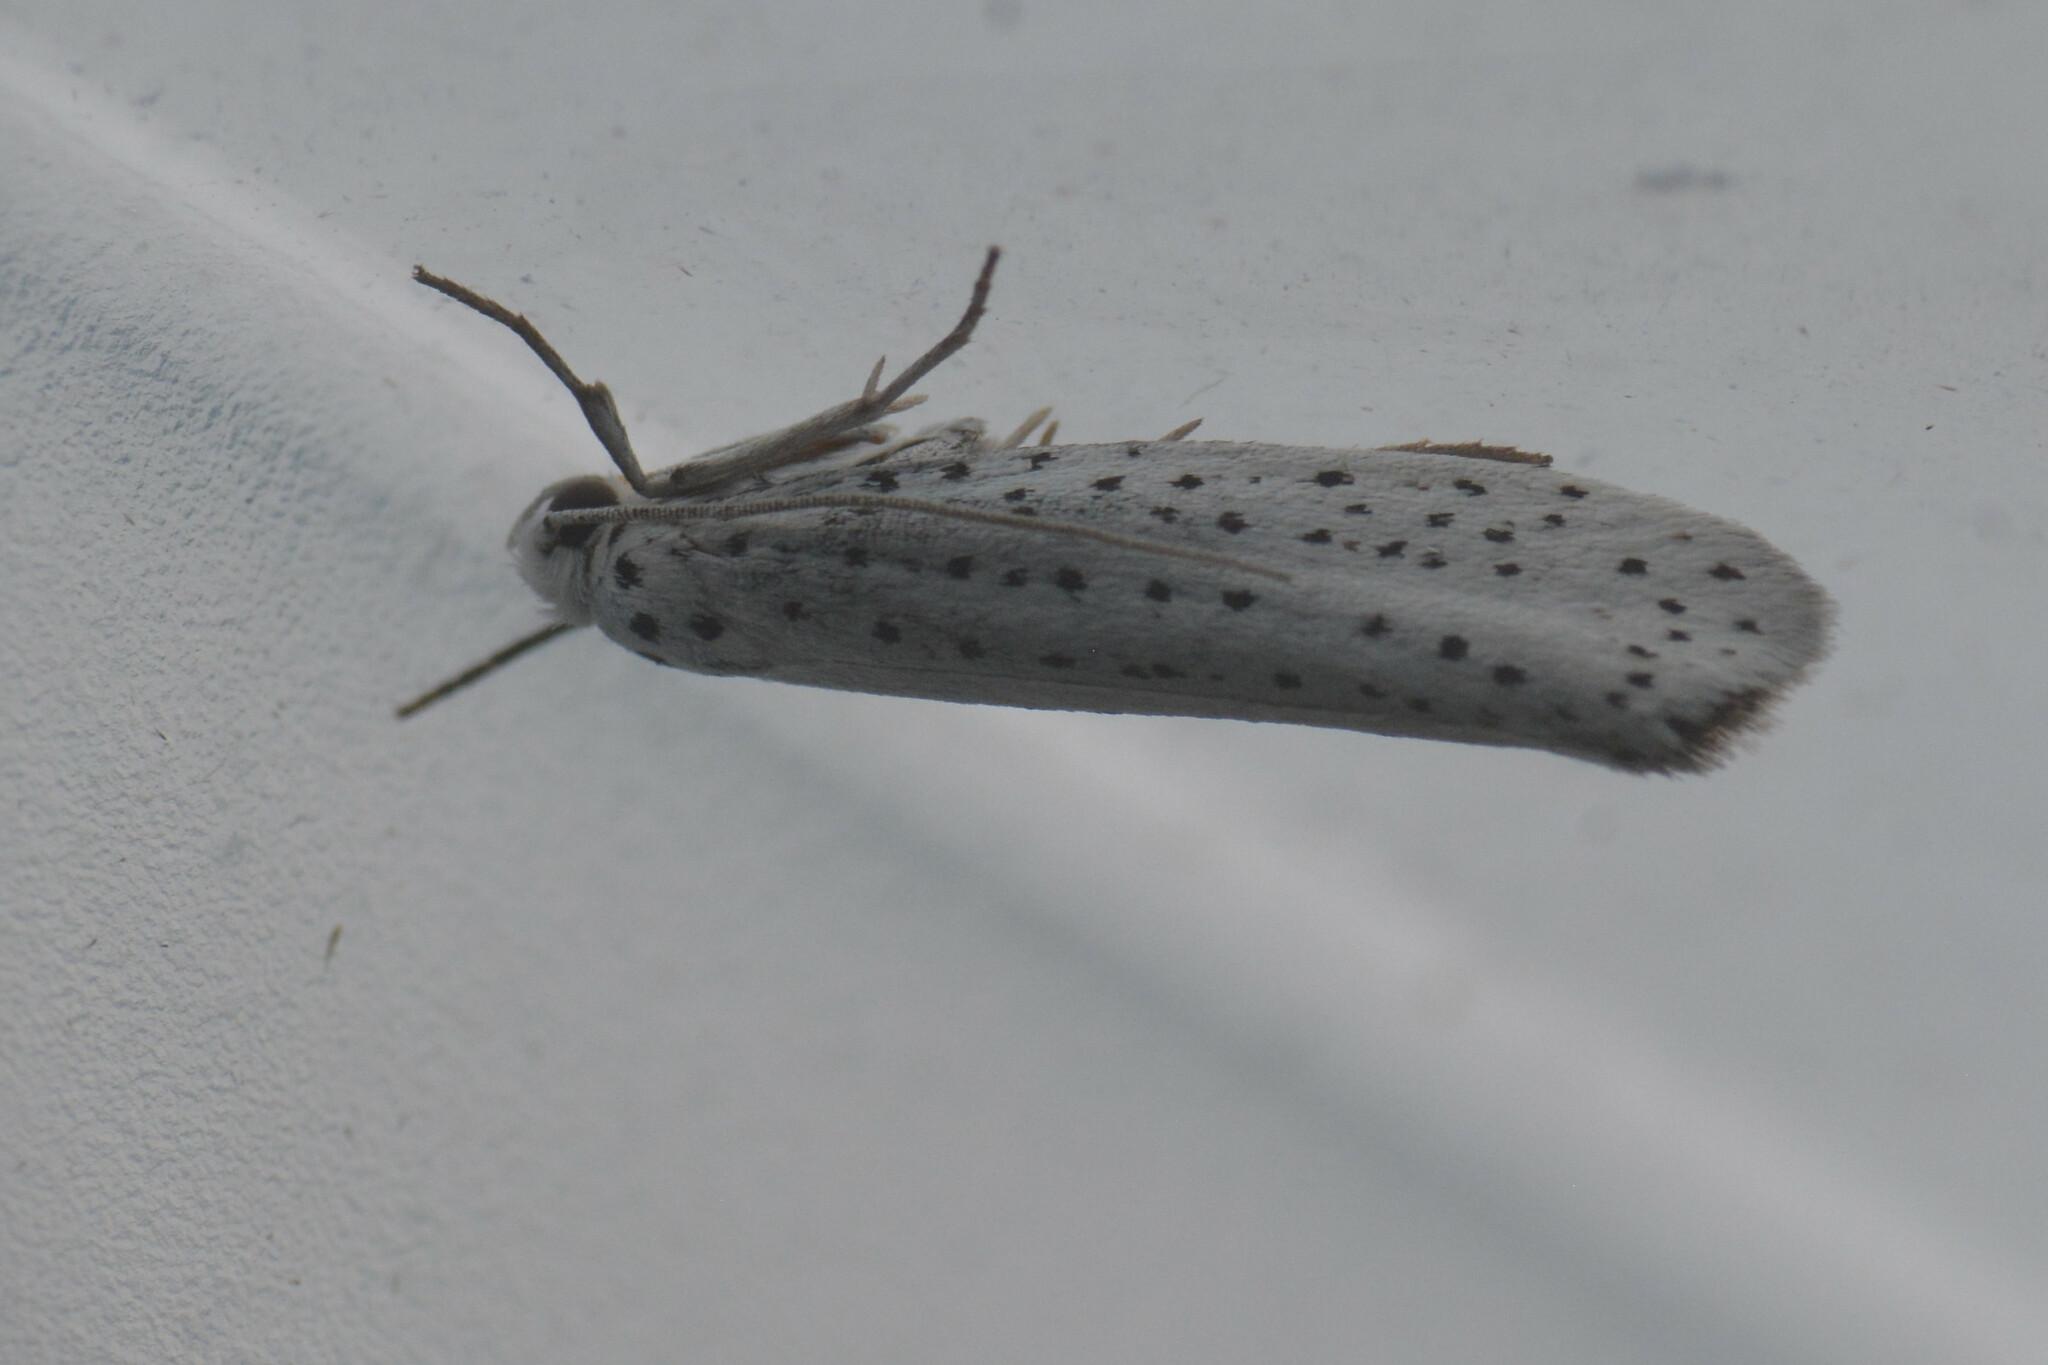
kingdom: Animalia
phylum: Arthropoda
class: Insecta
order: Lepidoptera
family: Yponomeutidae
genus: Yponomeuta
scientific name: Yponomeuta evonymella
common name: Bird-cherry ermine
